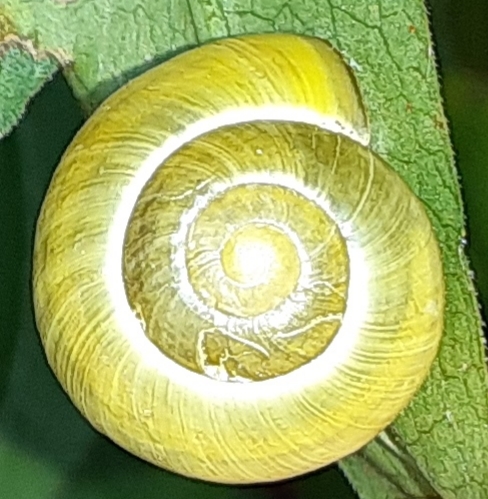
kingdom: Animalia
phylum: Mollusca
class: Gastropoda
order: Stylommatophora
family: Helicidae
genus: Cepaea
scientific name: Cepaea
